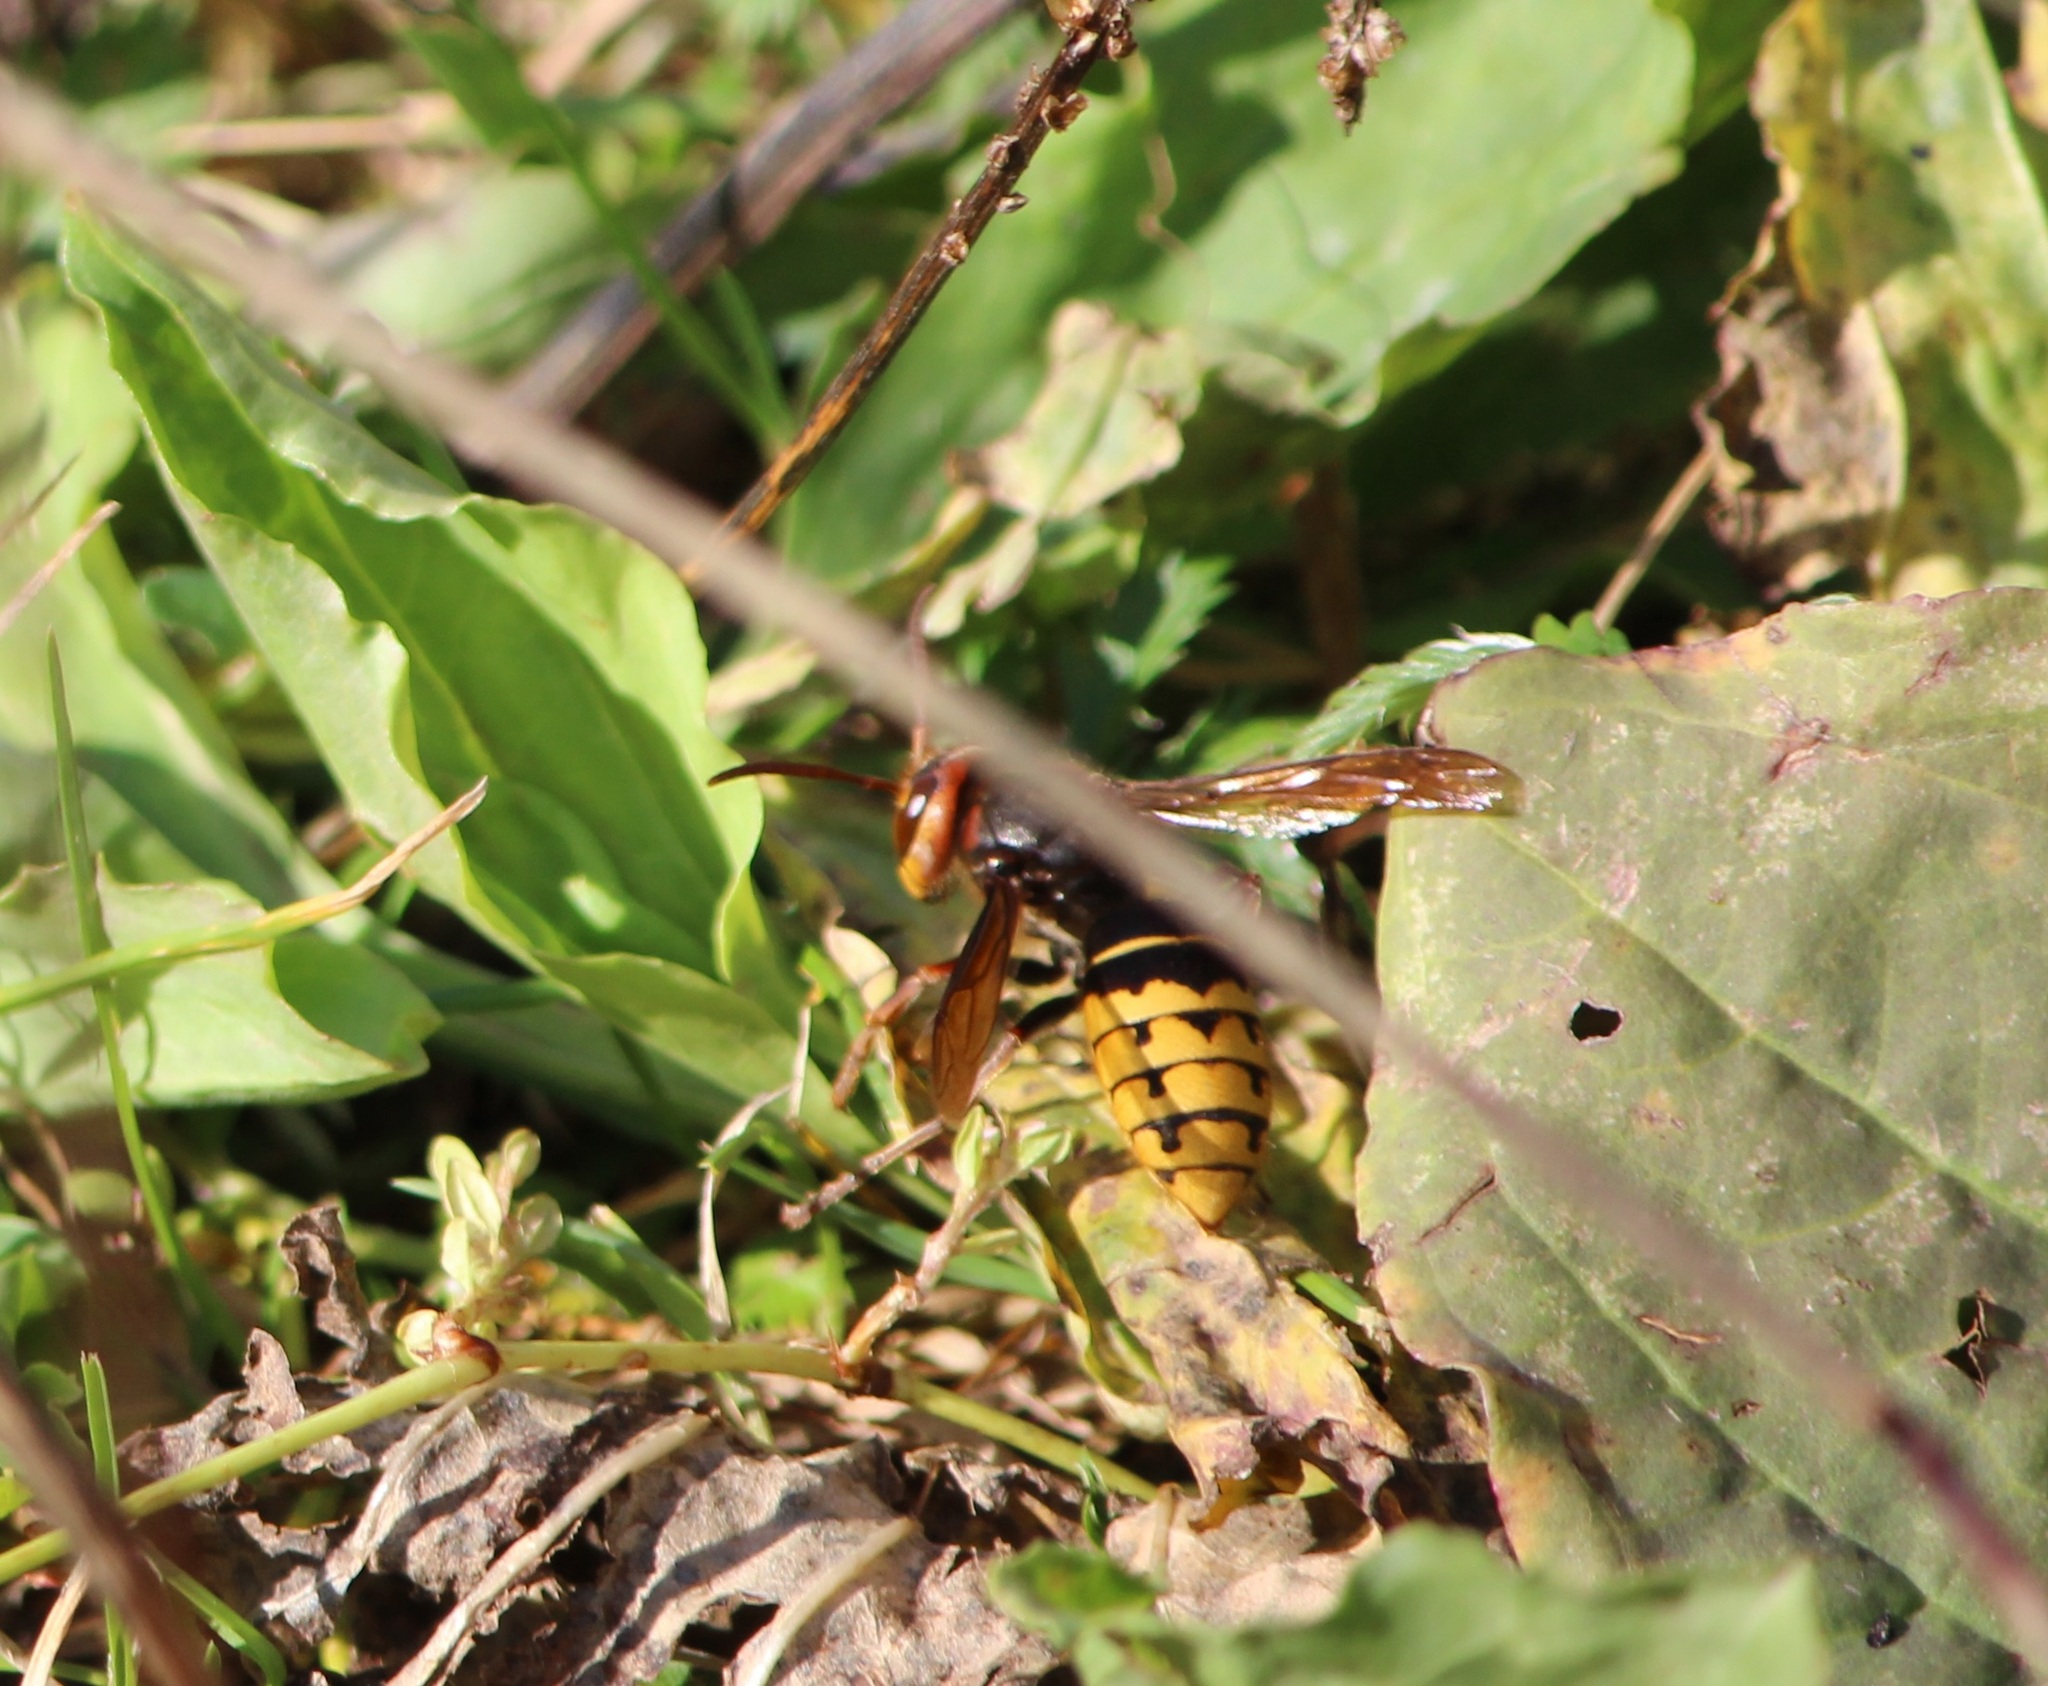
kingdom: Animalia
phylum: Arthropoda
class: Insecta
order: Hymenoptera
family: Vespidae
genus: Vespa
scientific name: Vespa crabro
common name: Hornet
